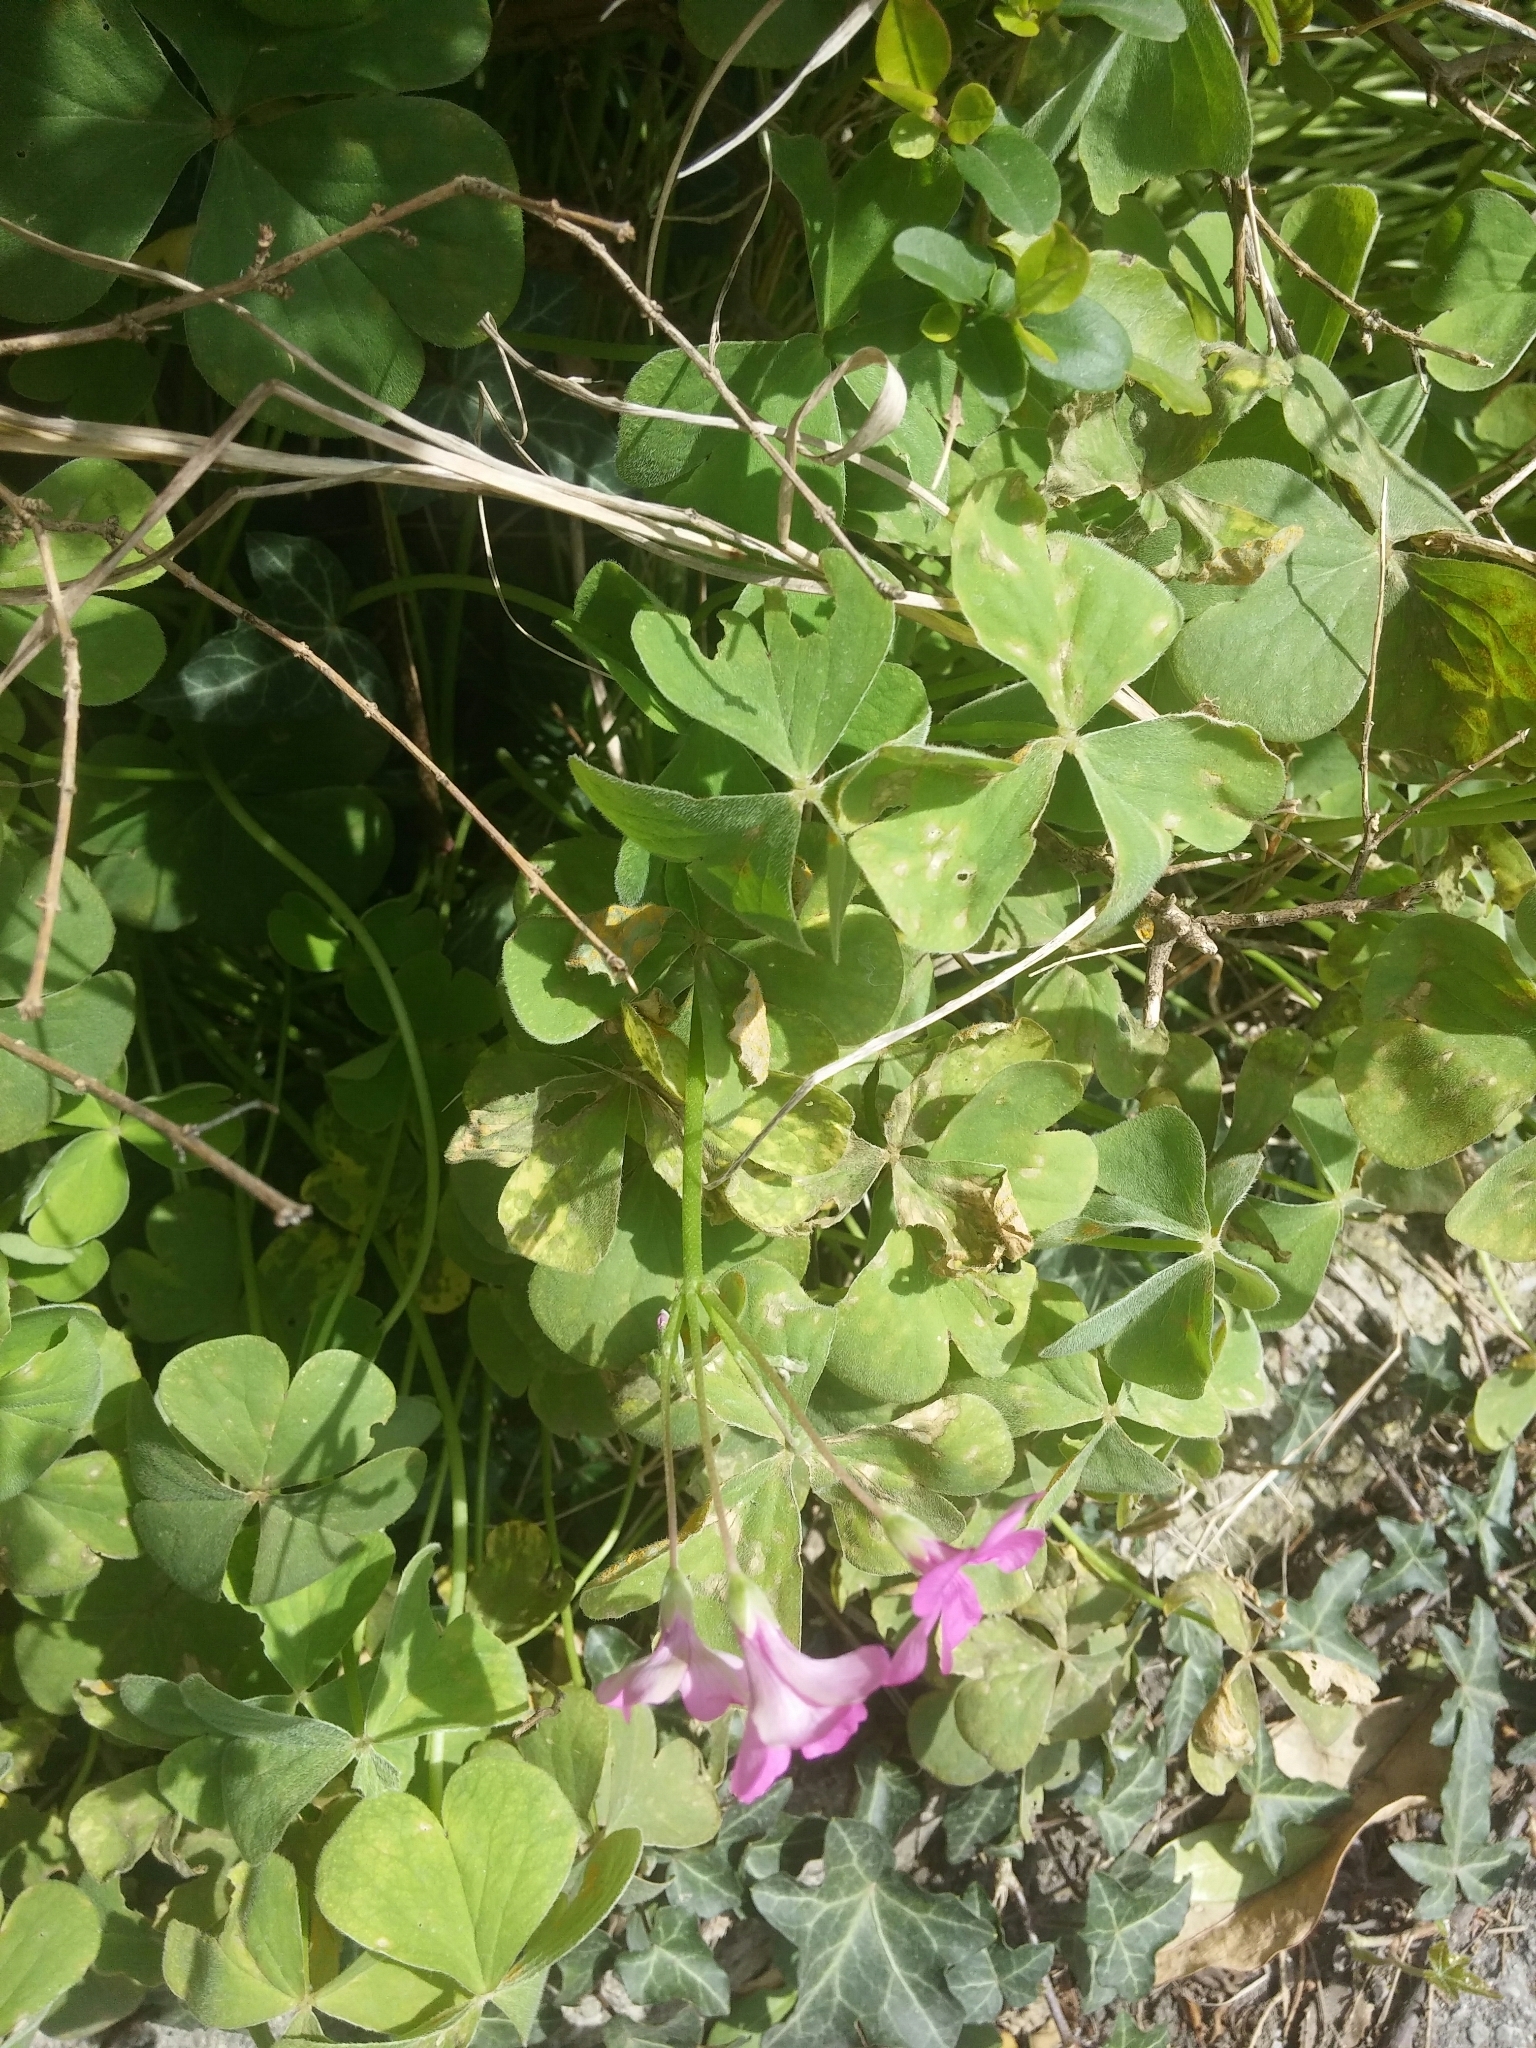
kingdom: Plantae
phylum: Tracheophyta
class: Magnoliopsida
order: Oxalidales
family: Oxalidaceae
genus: Oxalis
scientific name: Oxalis articulata
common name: Pink-sorrel
